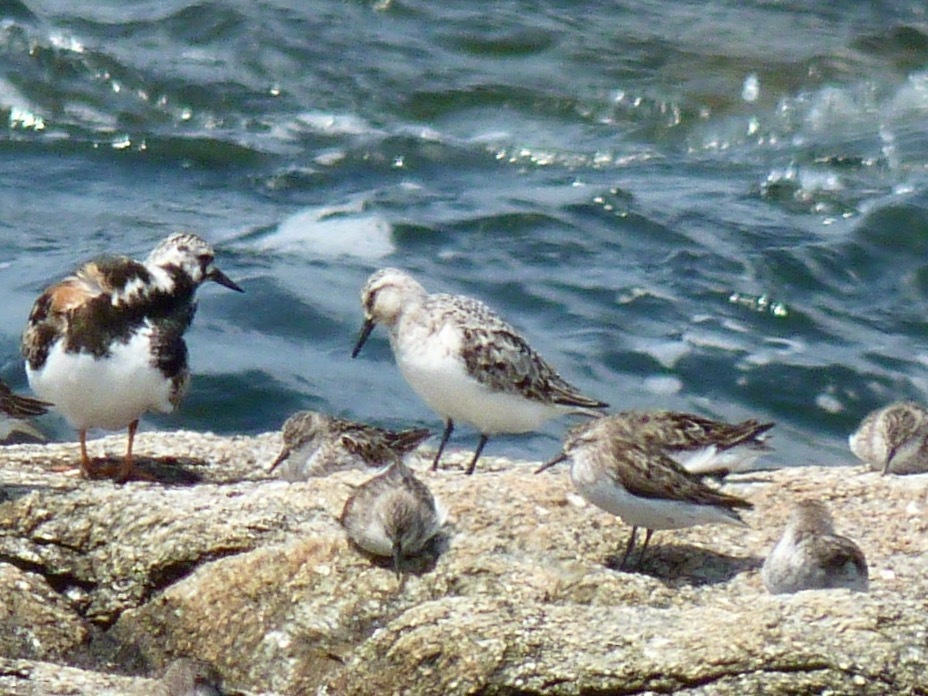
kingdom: Animalia
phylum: Chordata
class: Aves
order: Charadriiformes
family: Scolopacidae
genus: Calidris
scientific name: Calidris alba
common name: Sanderling
